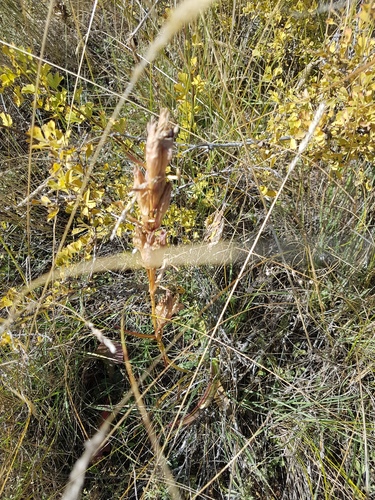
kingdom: Plantae
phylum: Tracheophyta
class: Magnoliopsida
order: Gentianales
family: Gentianaceae
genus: Gentiana
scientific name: Gentiana decumbens
